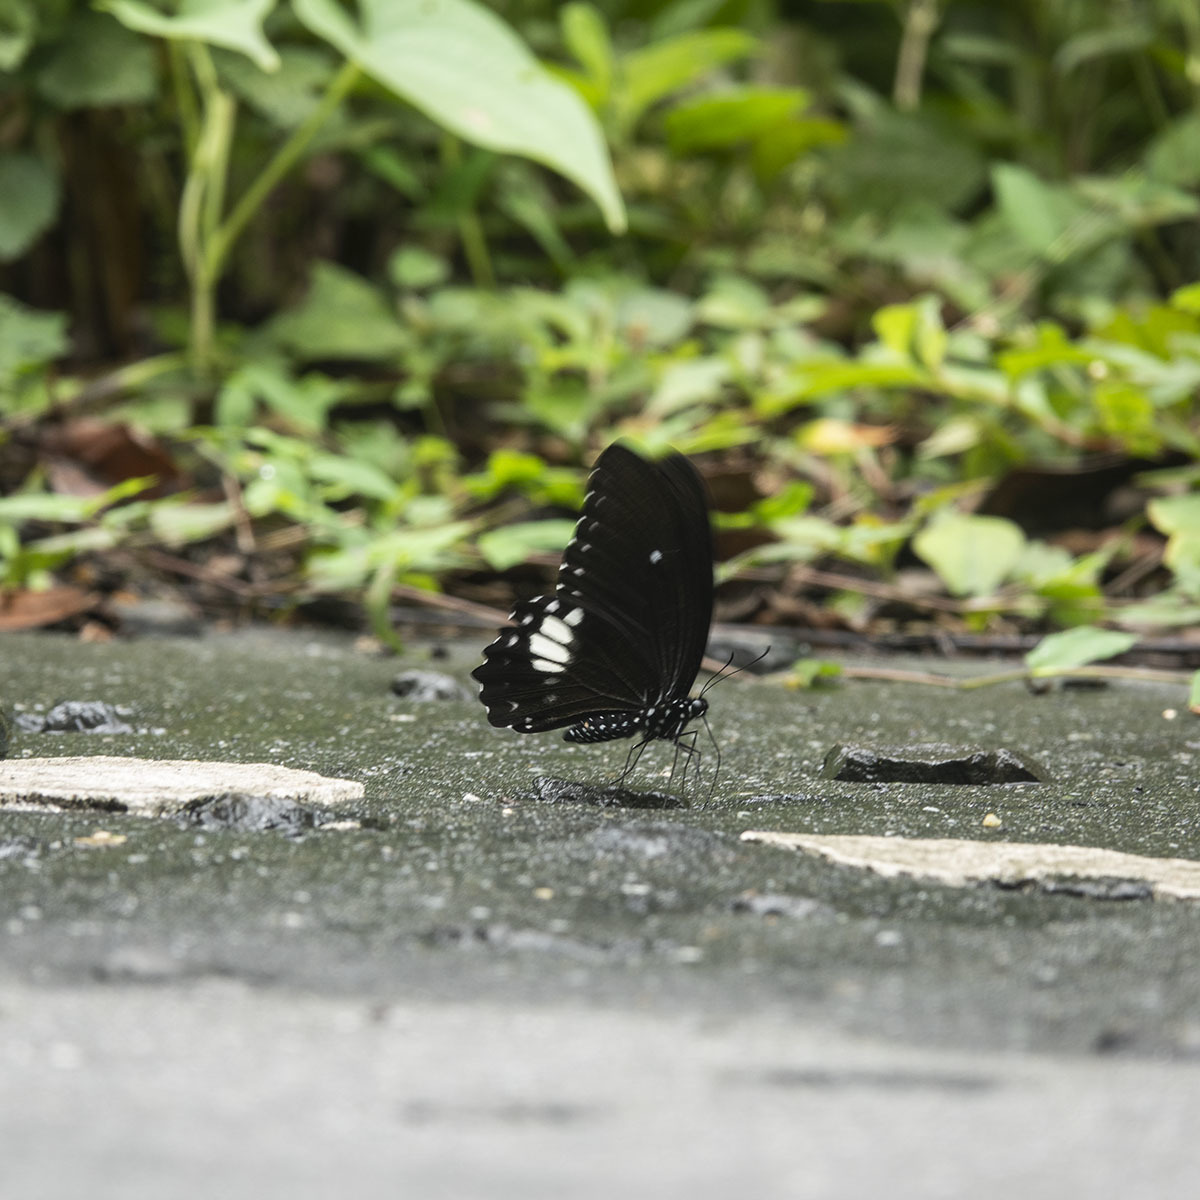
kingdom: Animalia
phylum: Arthropoda
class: Insecta
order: Lepidoptera
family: Papilionidae
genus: Papilio
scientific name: Papilio castor
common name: Common raven
